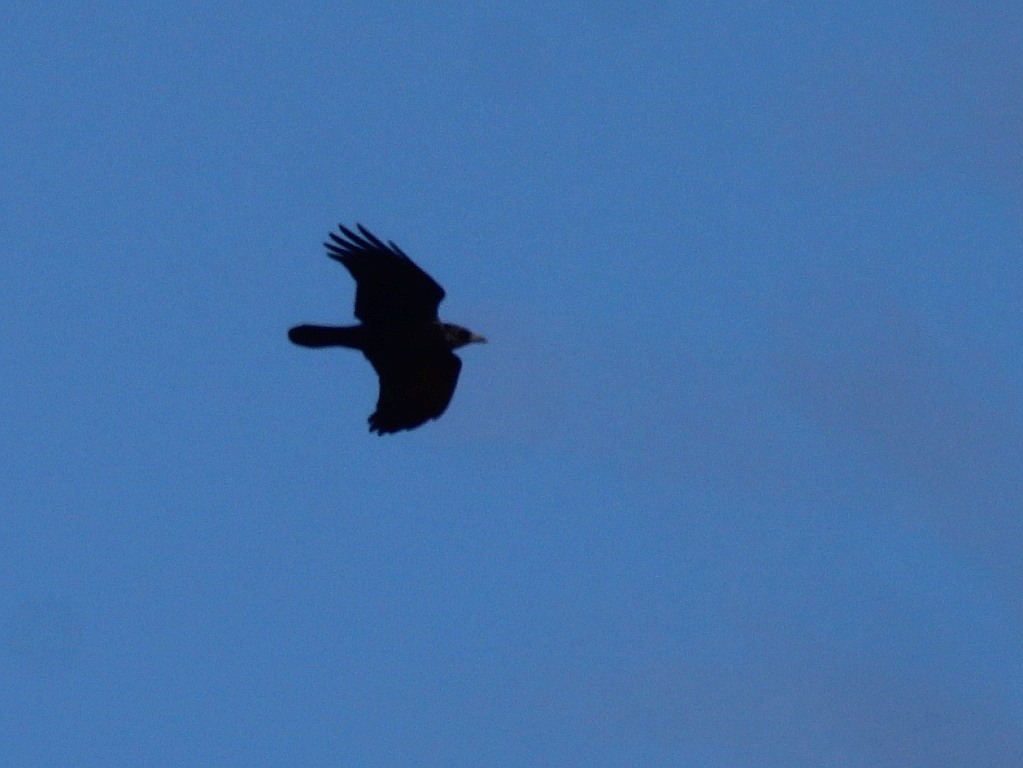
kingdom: Animalia
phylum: Chordata
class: Aves
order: Passeriformes
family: Corvidae
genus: Corvus
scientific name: Corvus corone
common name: Carrion crow
